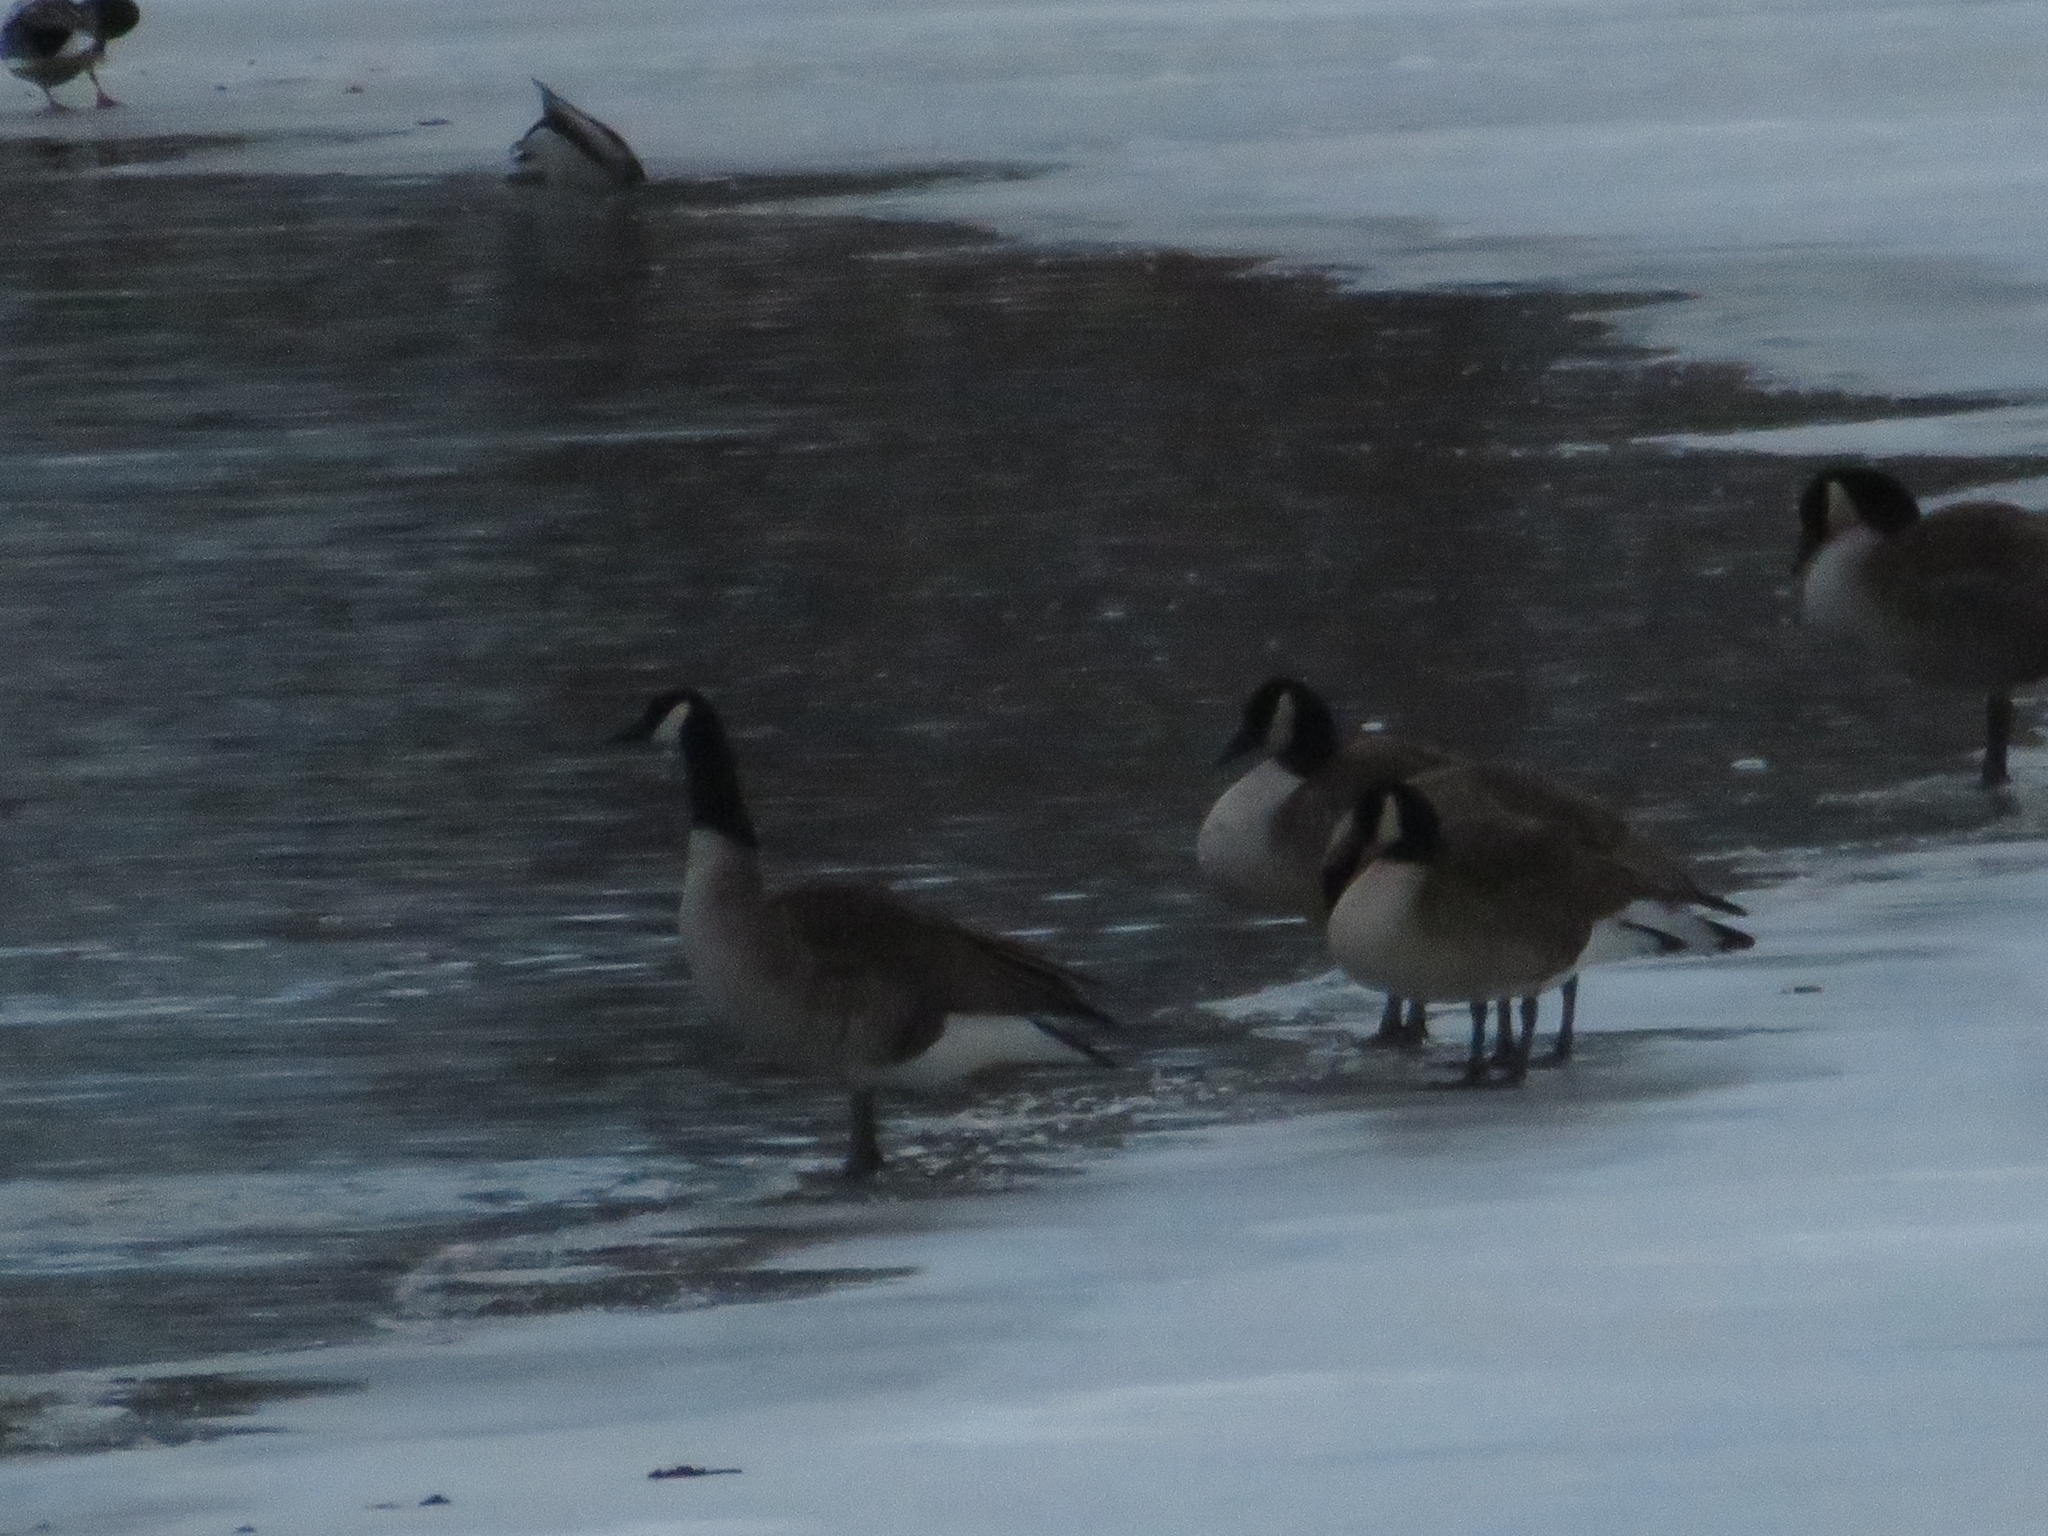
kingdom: Animalia
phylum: Chordata
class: Aves
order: Anseriformes
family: Anatidae
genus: Branta
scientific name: Branta canadensis
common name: Canada goose
